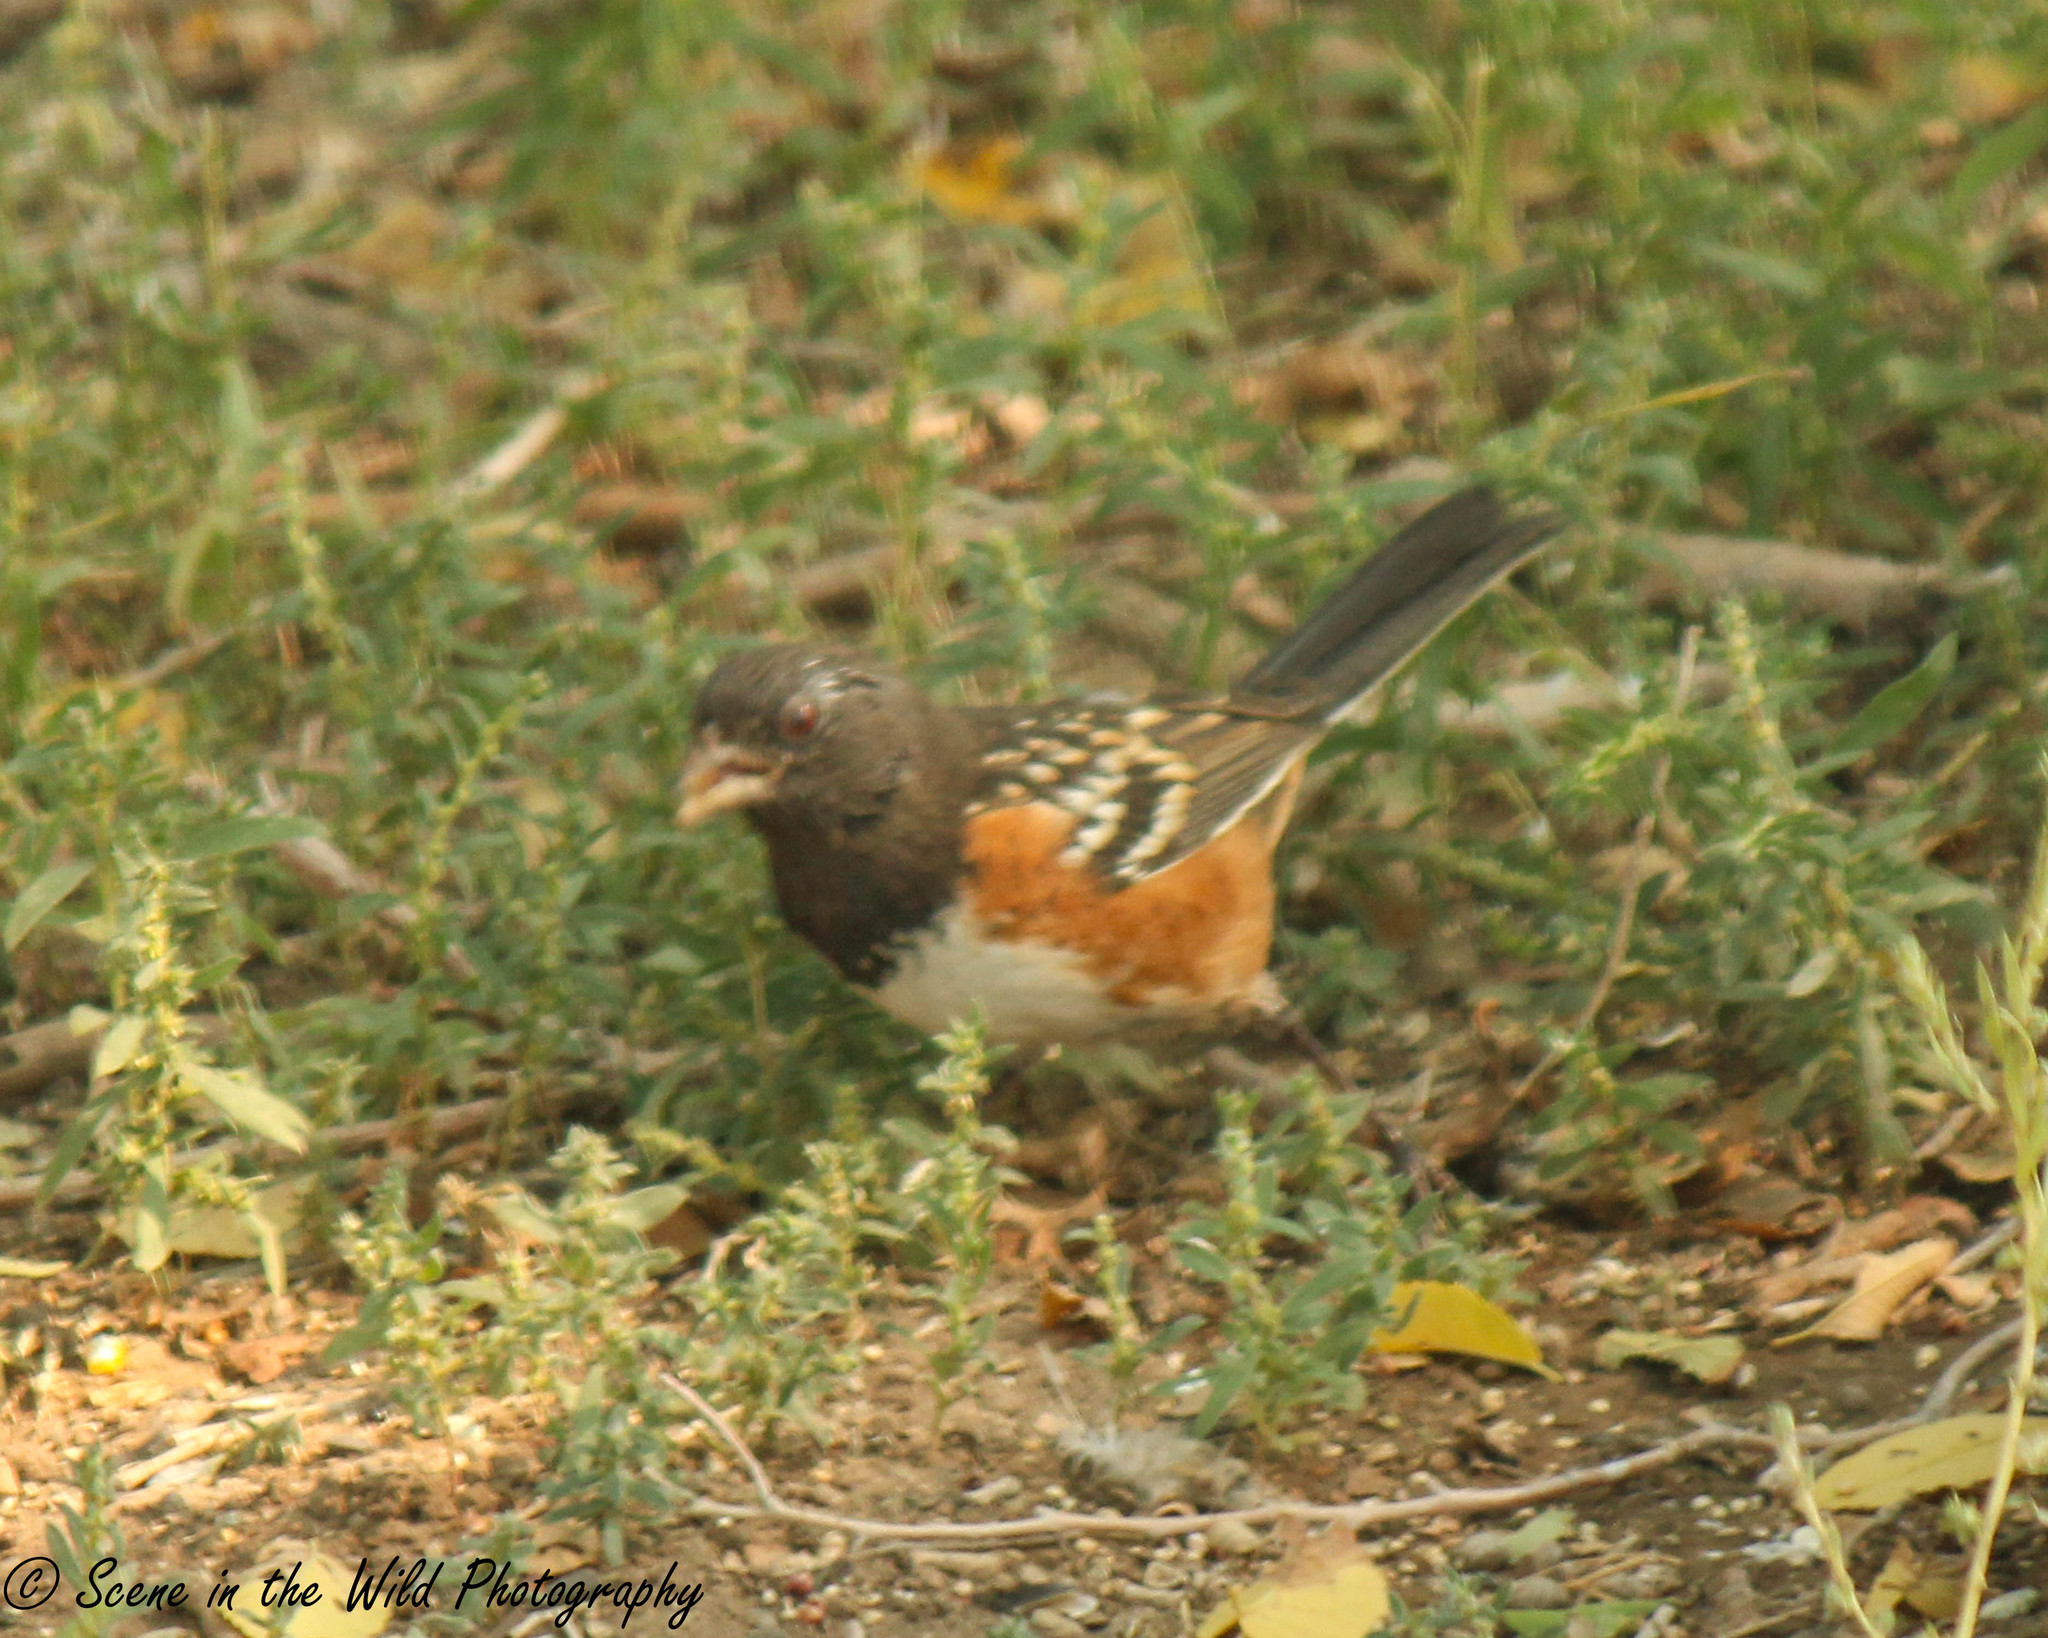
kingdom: Animalia
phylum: Chordata
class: Aves
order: Passeriformes
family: Passerellidae
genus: Pipilo
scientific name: Pipilo maculatus
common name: Spotted towhee
